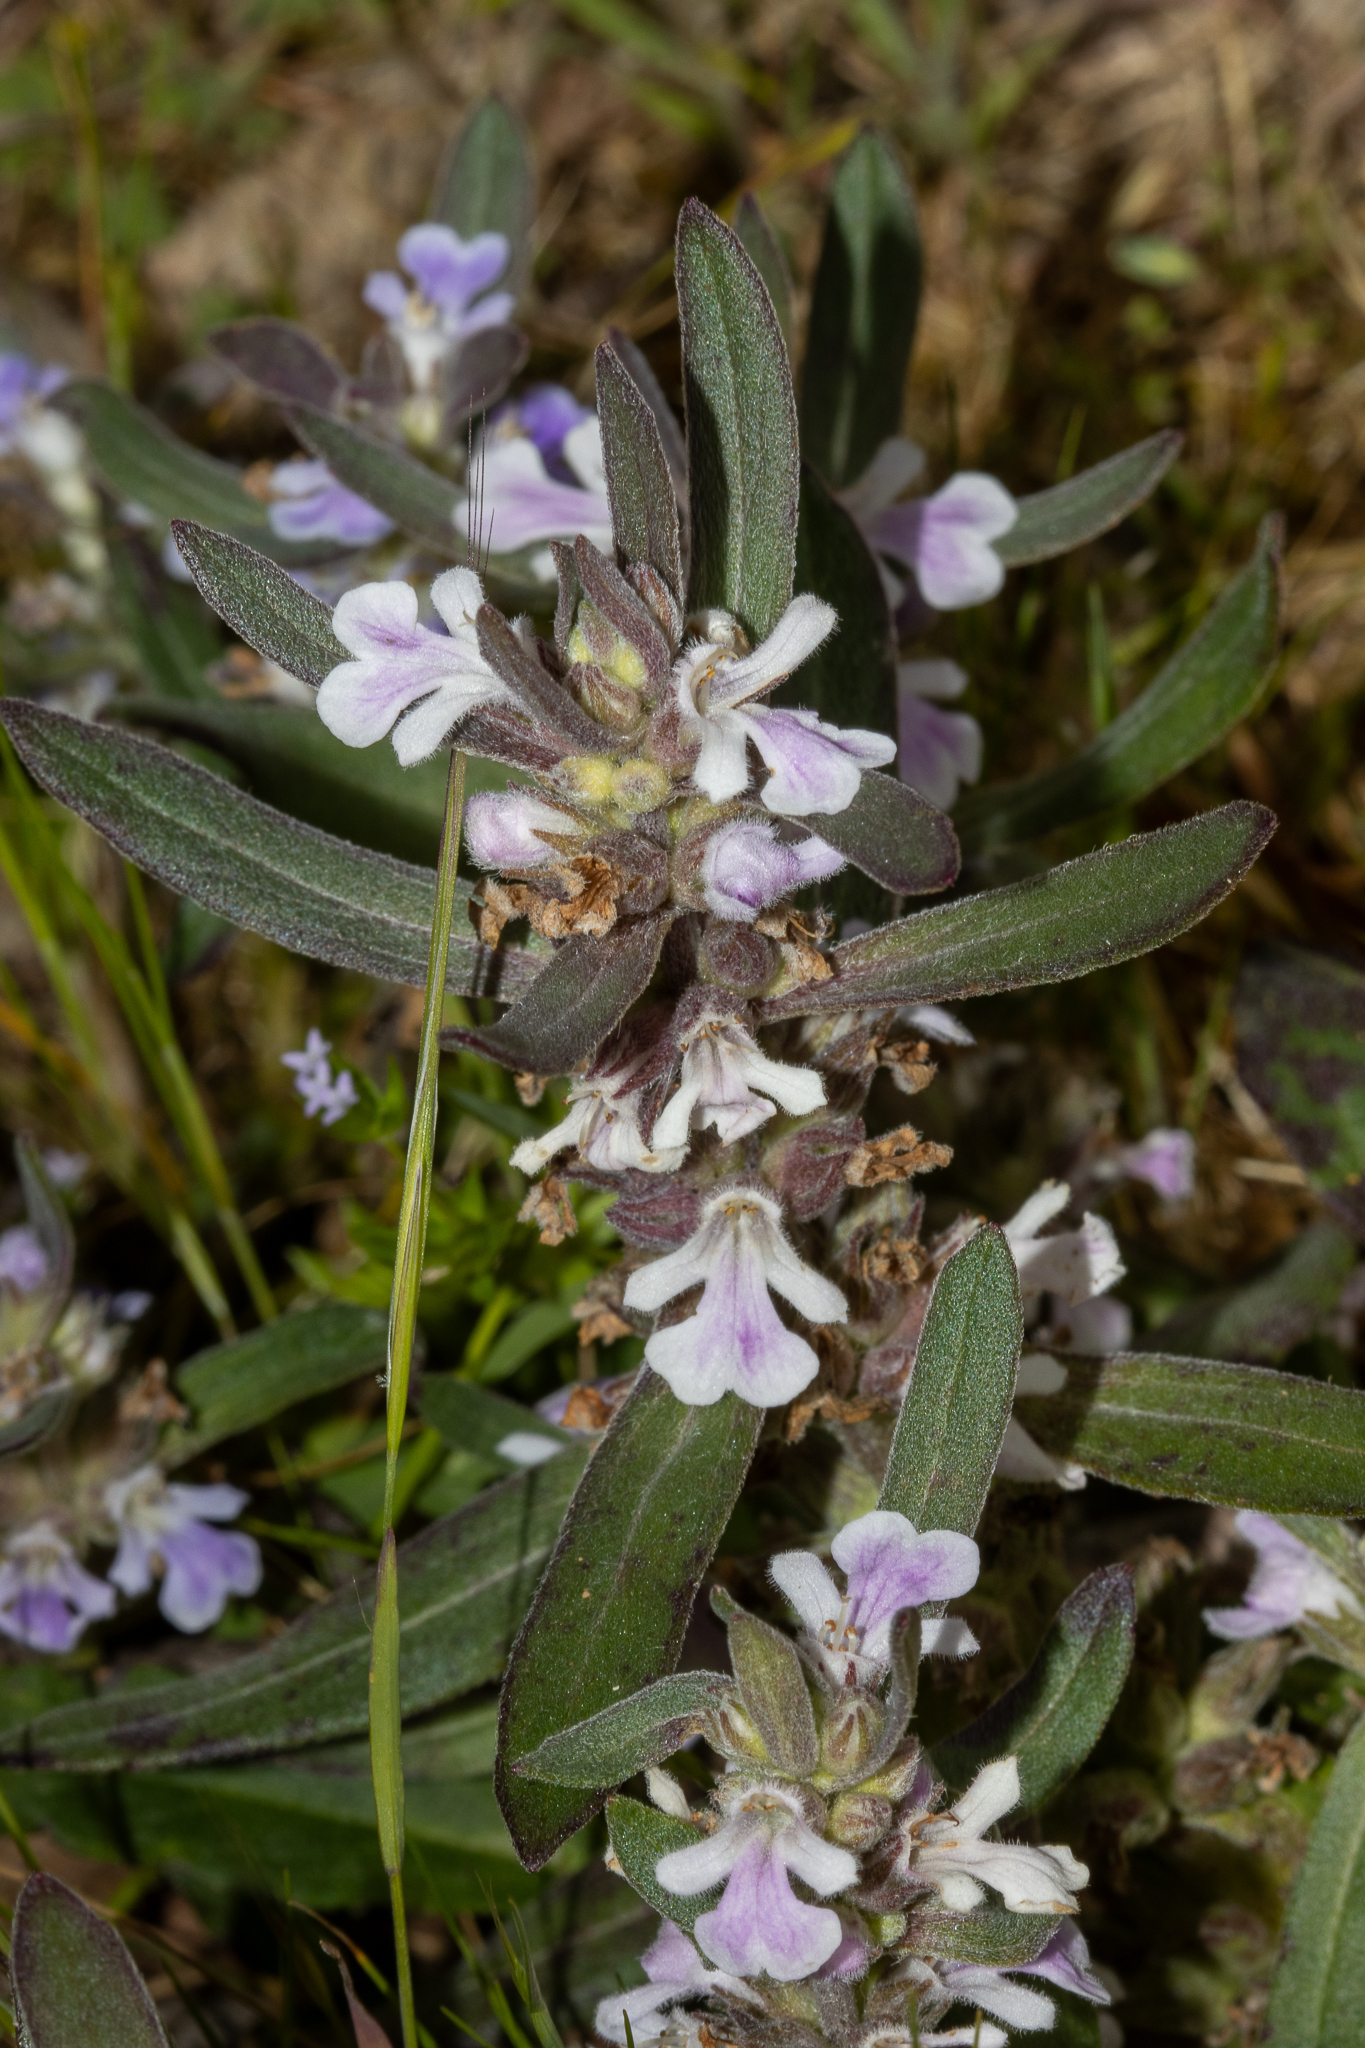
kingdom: Plantae
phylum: Tracheophyta
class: Magnoliopsida
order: Lamiales
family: Lamiaceae
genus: Ajuga
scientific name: Ajuga australis
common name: Australian bugle
